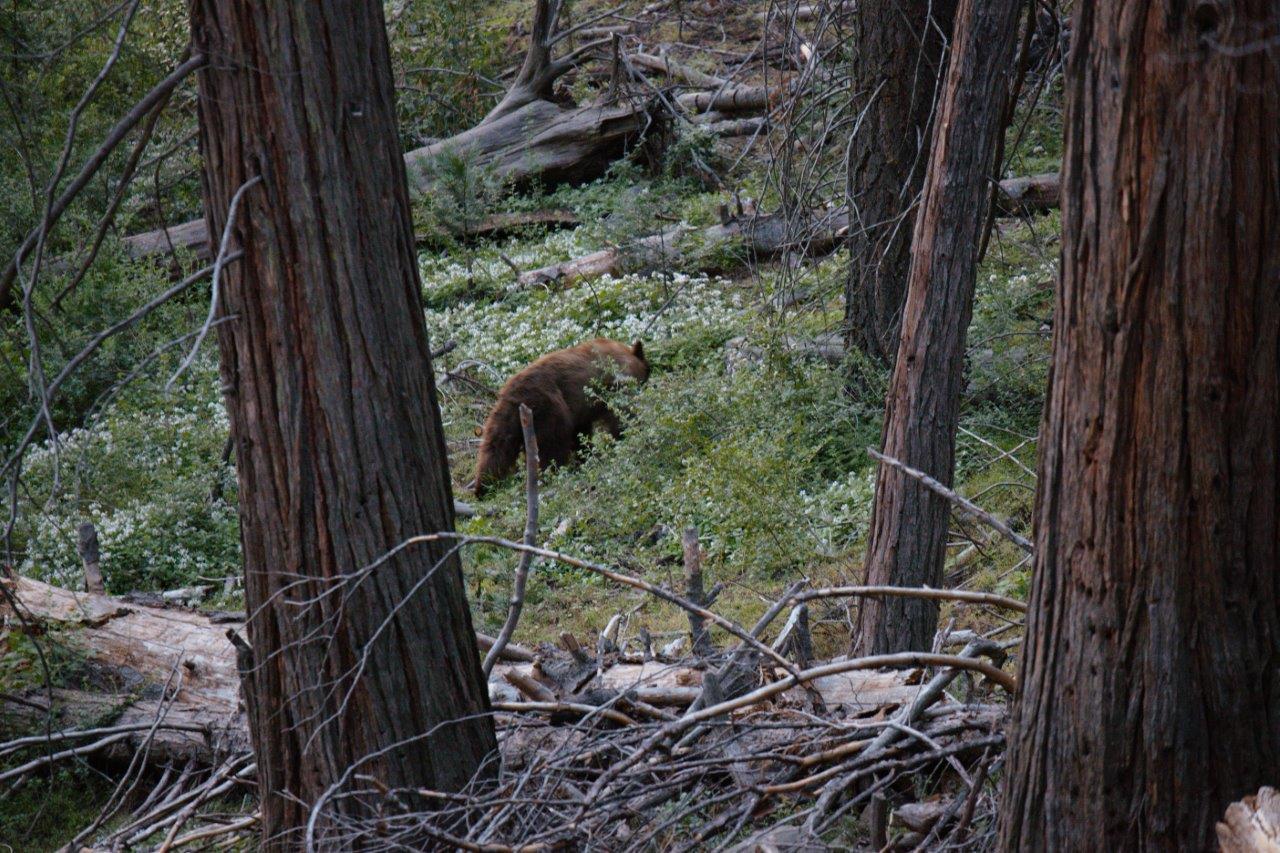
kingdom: Animalia
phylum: Chordata
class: Mammalia
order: Carnivora
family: Ursidae
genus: Ursus
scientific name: Ursus americanus
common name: American black bear
